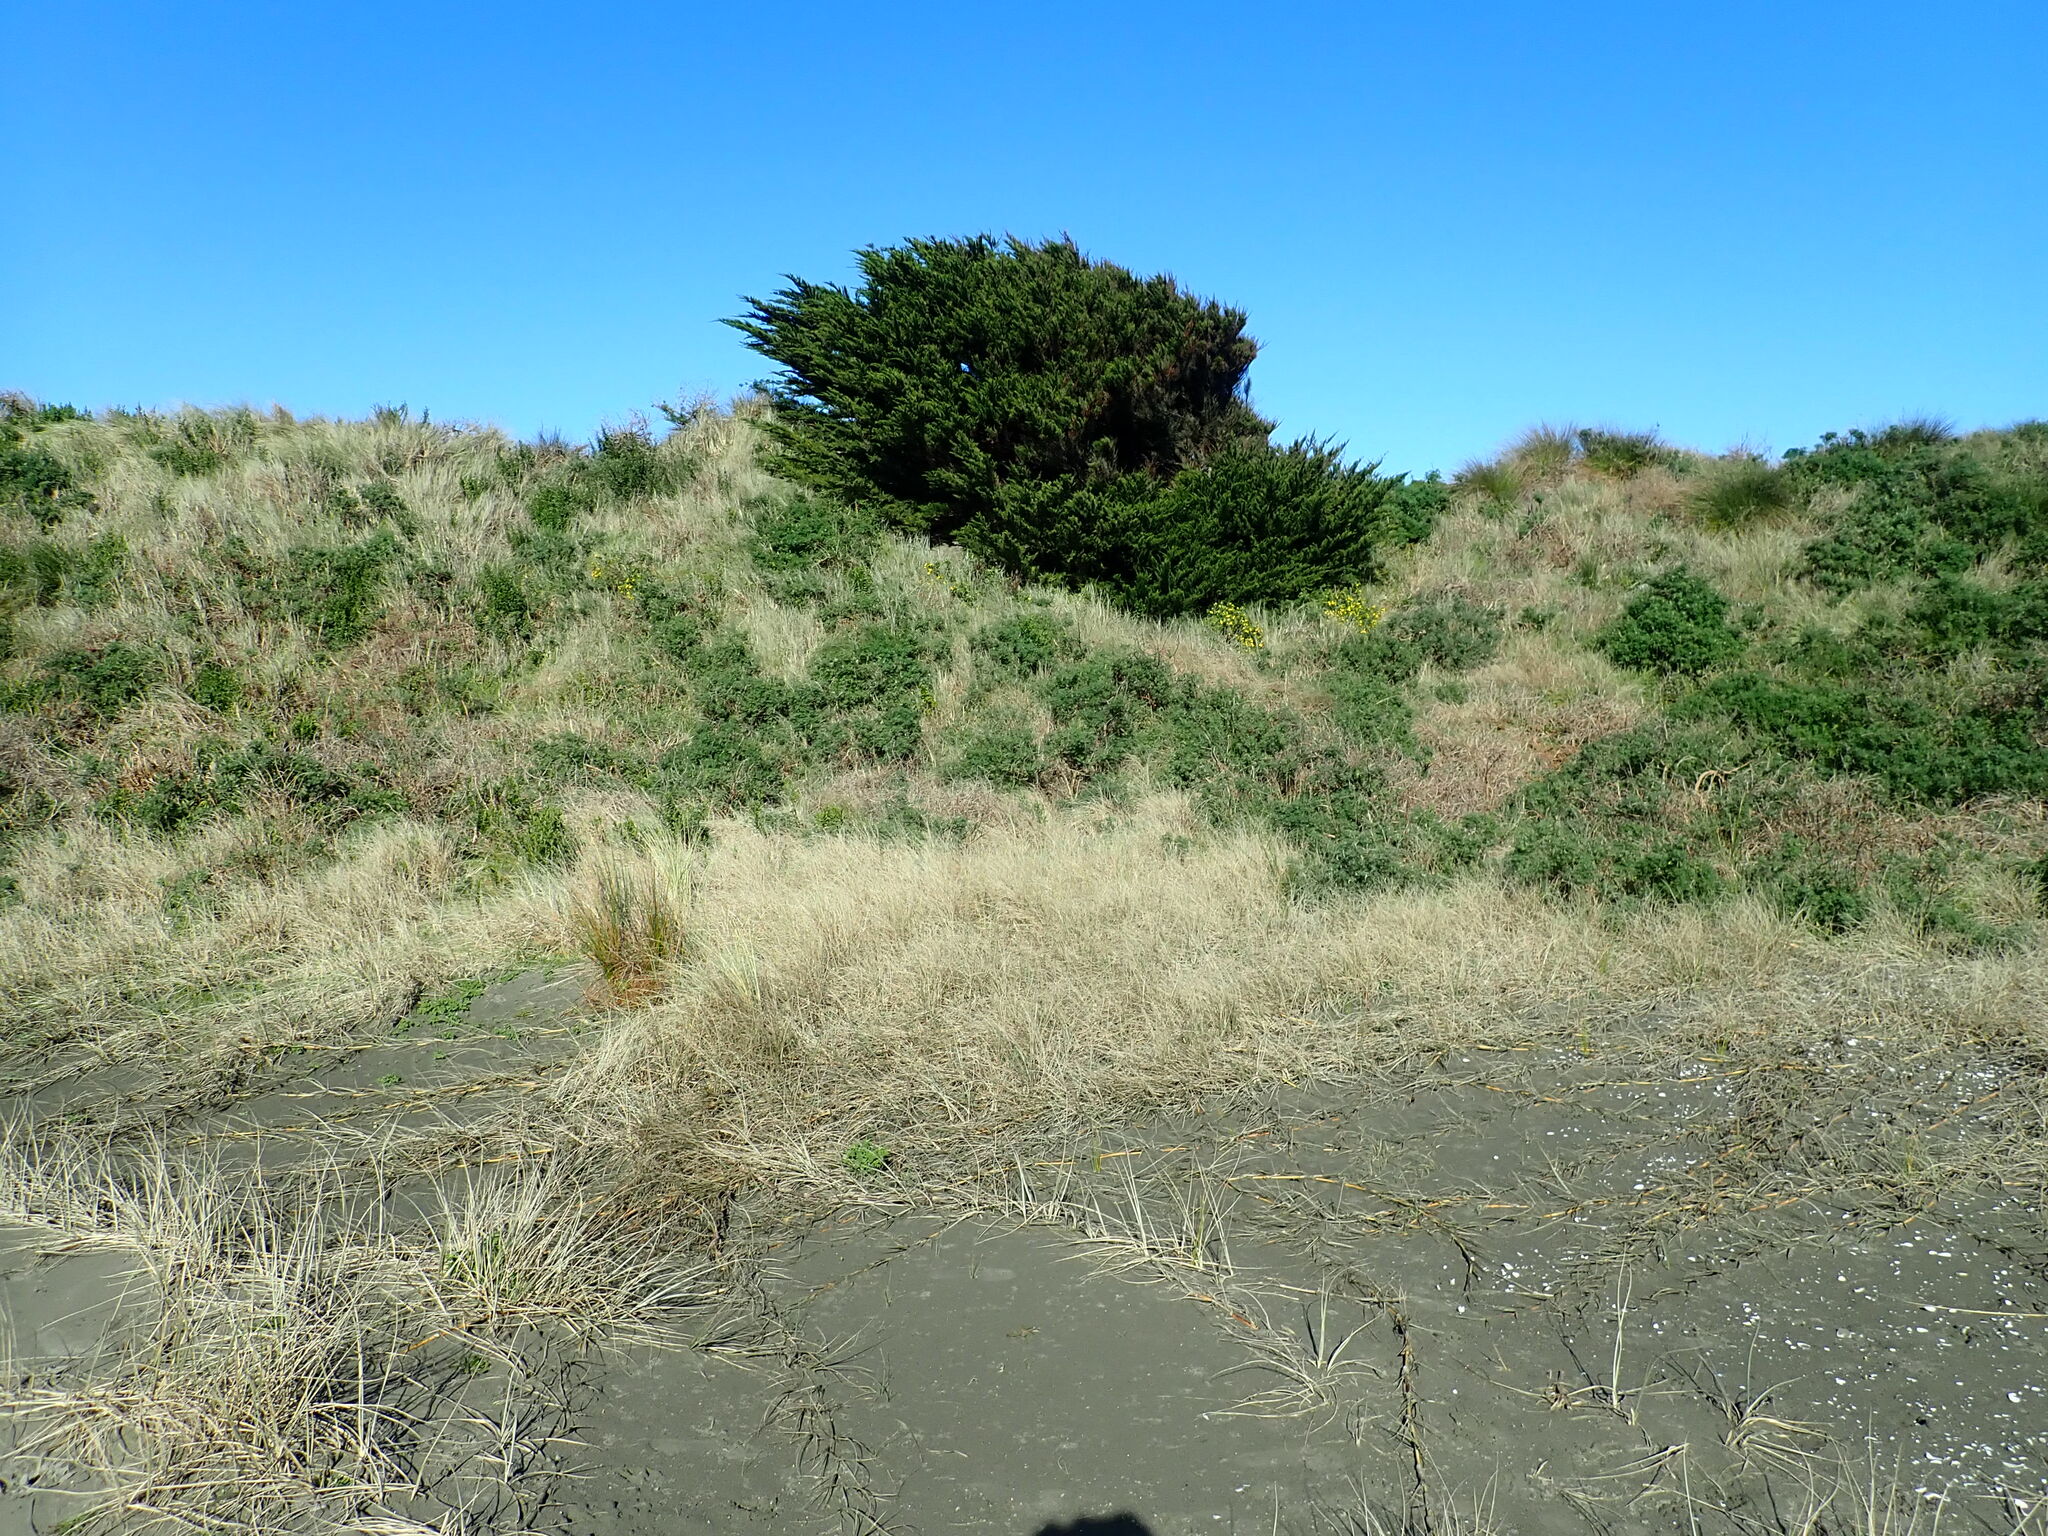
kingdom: Plantae
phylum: Tracheophyta
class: Magnoliopsida
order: Asterales
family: Asteraceae
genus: Osteospermum
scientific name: Osteospermum moniliferum
